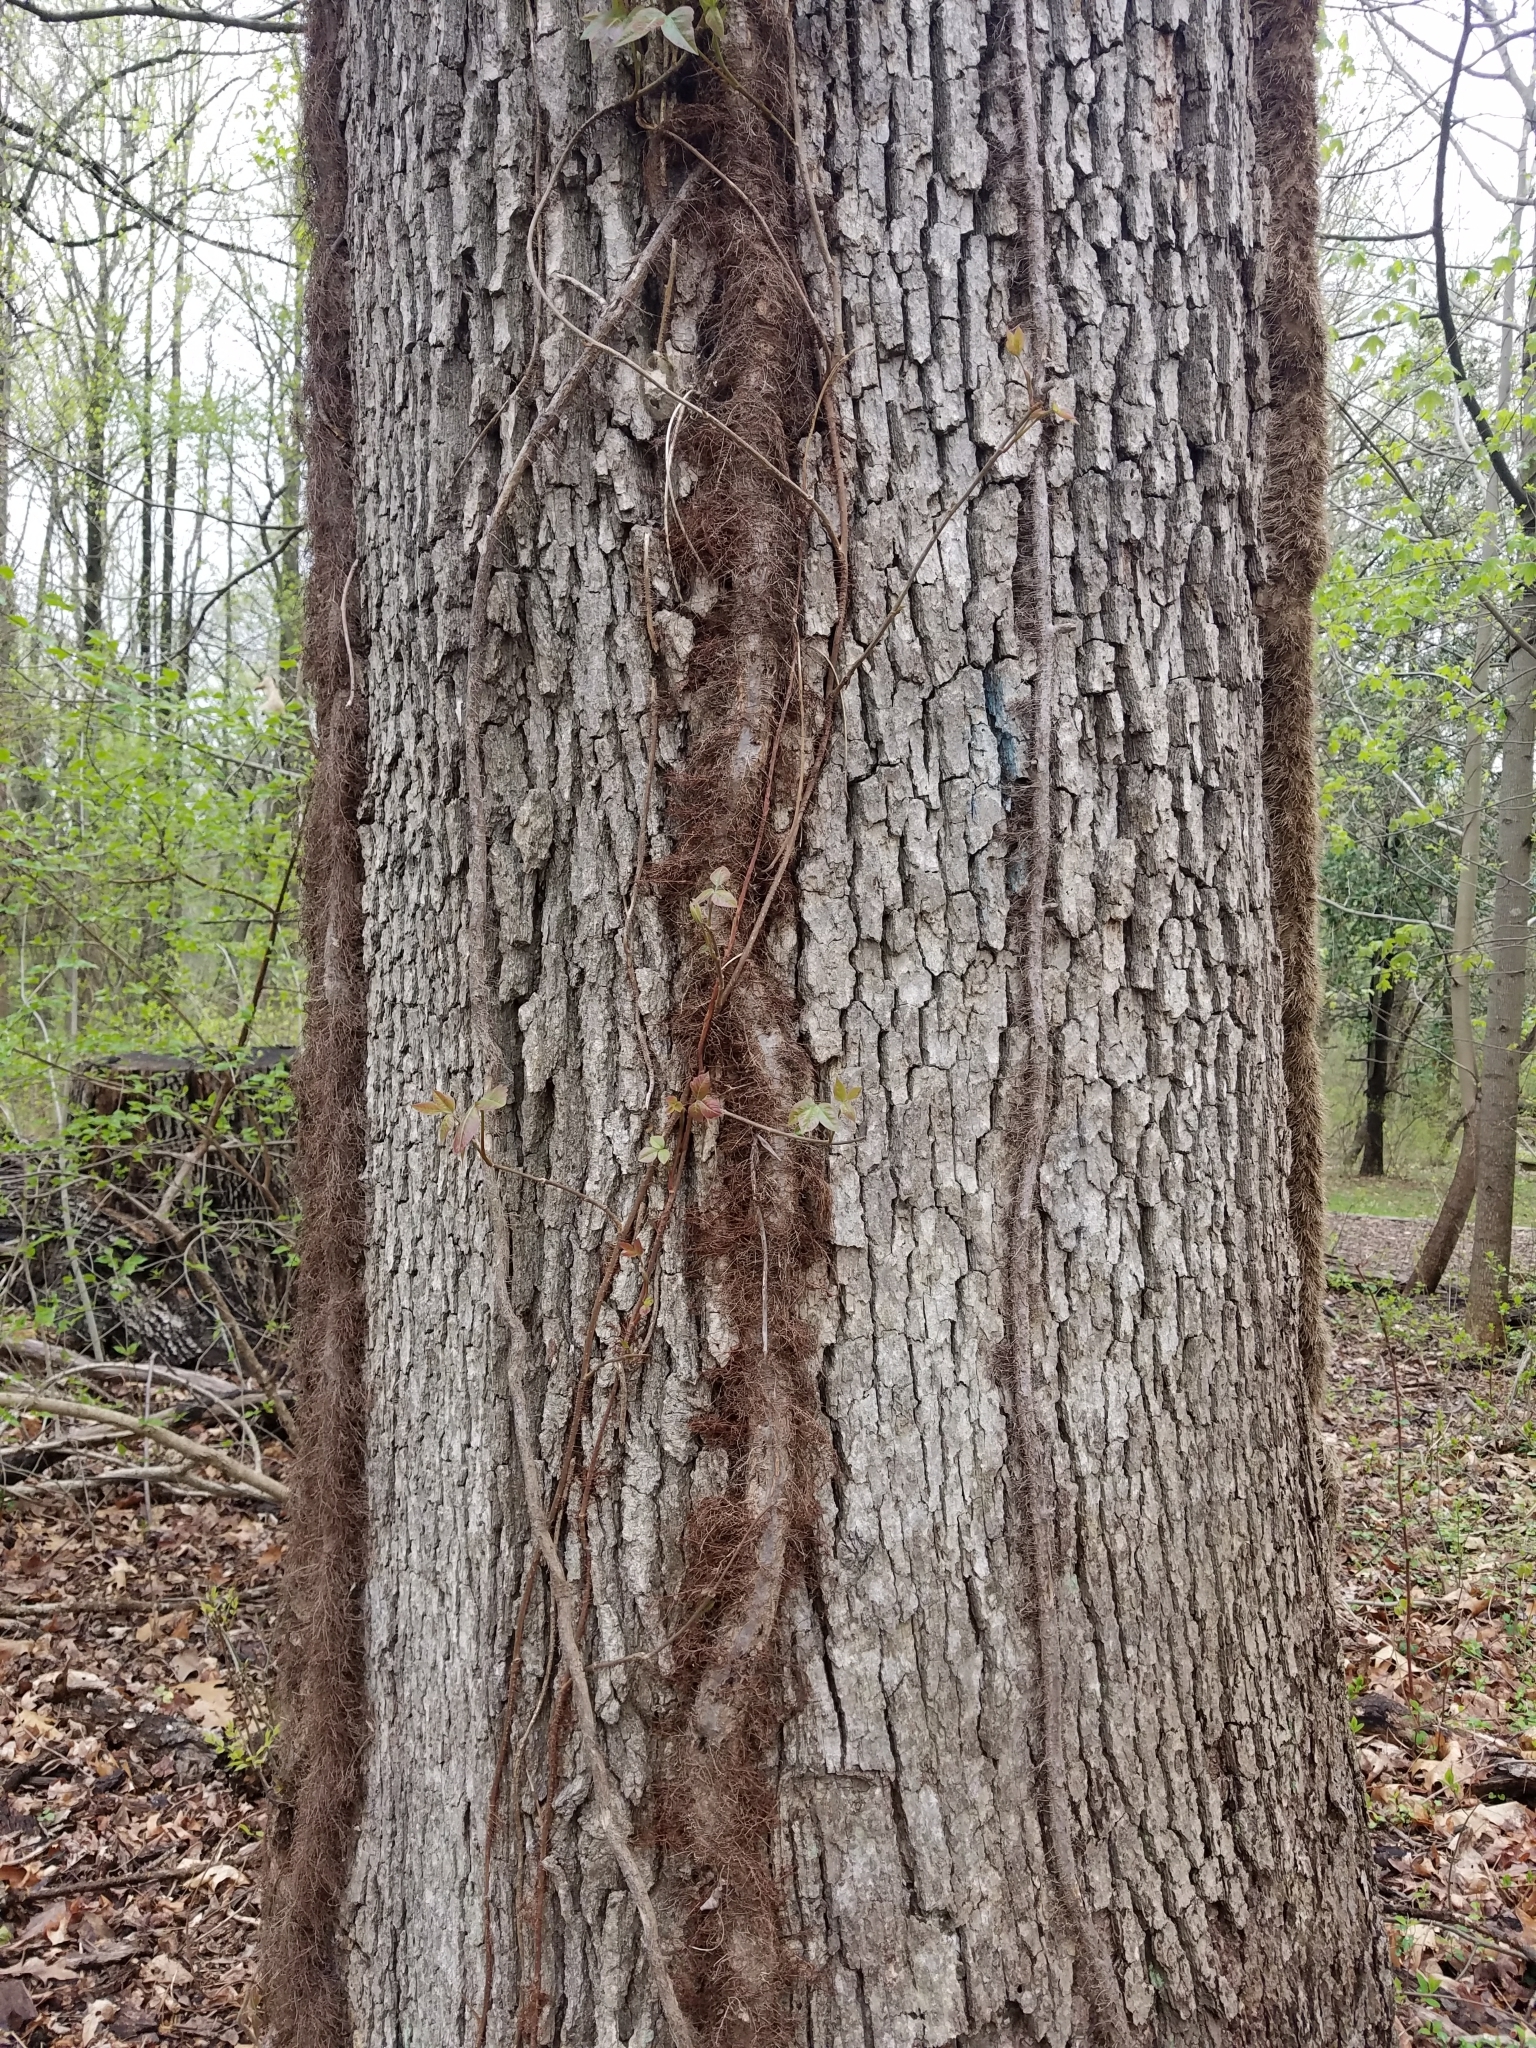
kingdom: Plantae
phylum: Tracheophyta
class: Magnoliopsida
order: Sapindales
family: Anacardiaceae
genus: Toxicodendron
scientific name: Toxicodendron radicans
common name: Poison ivy
